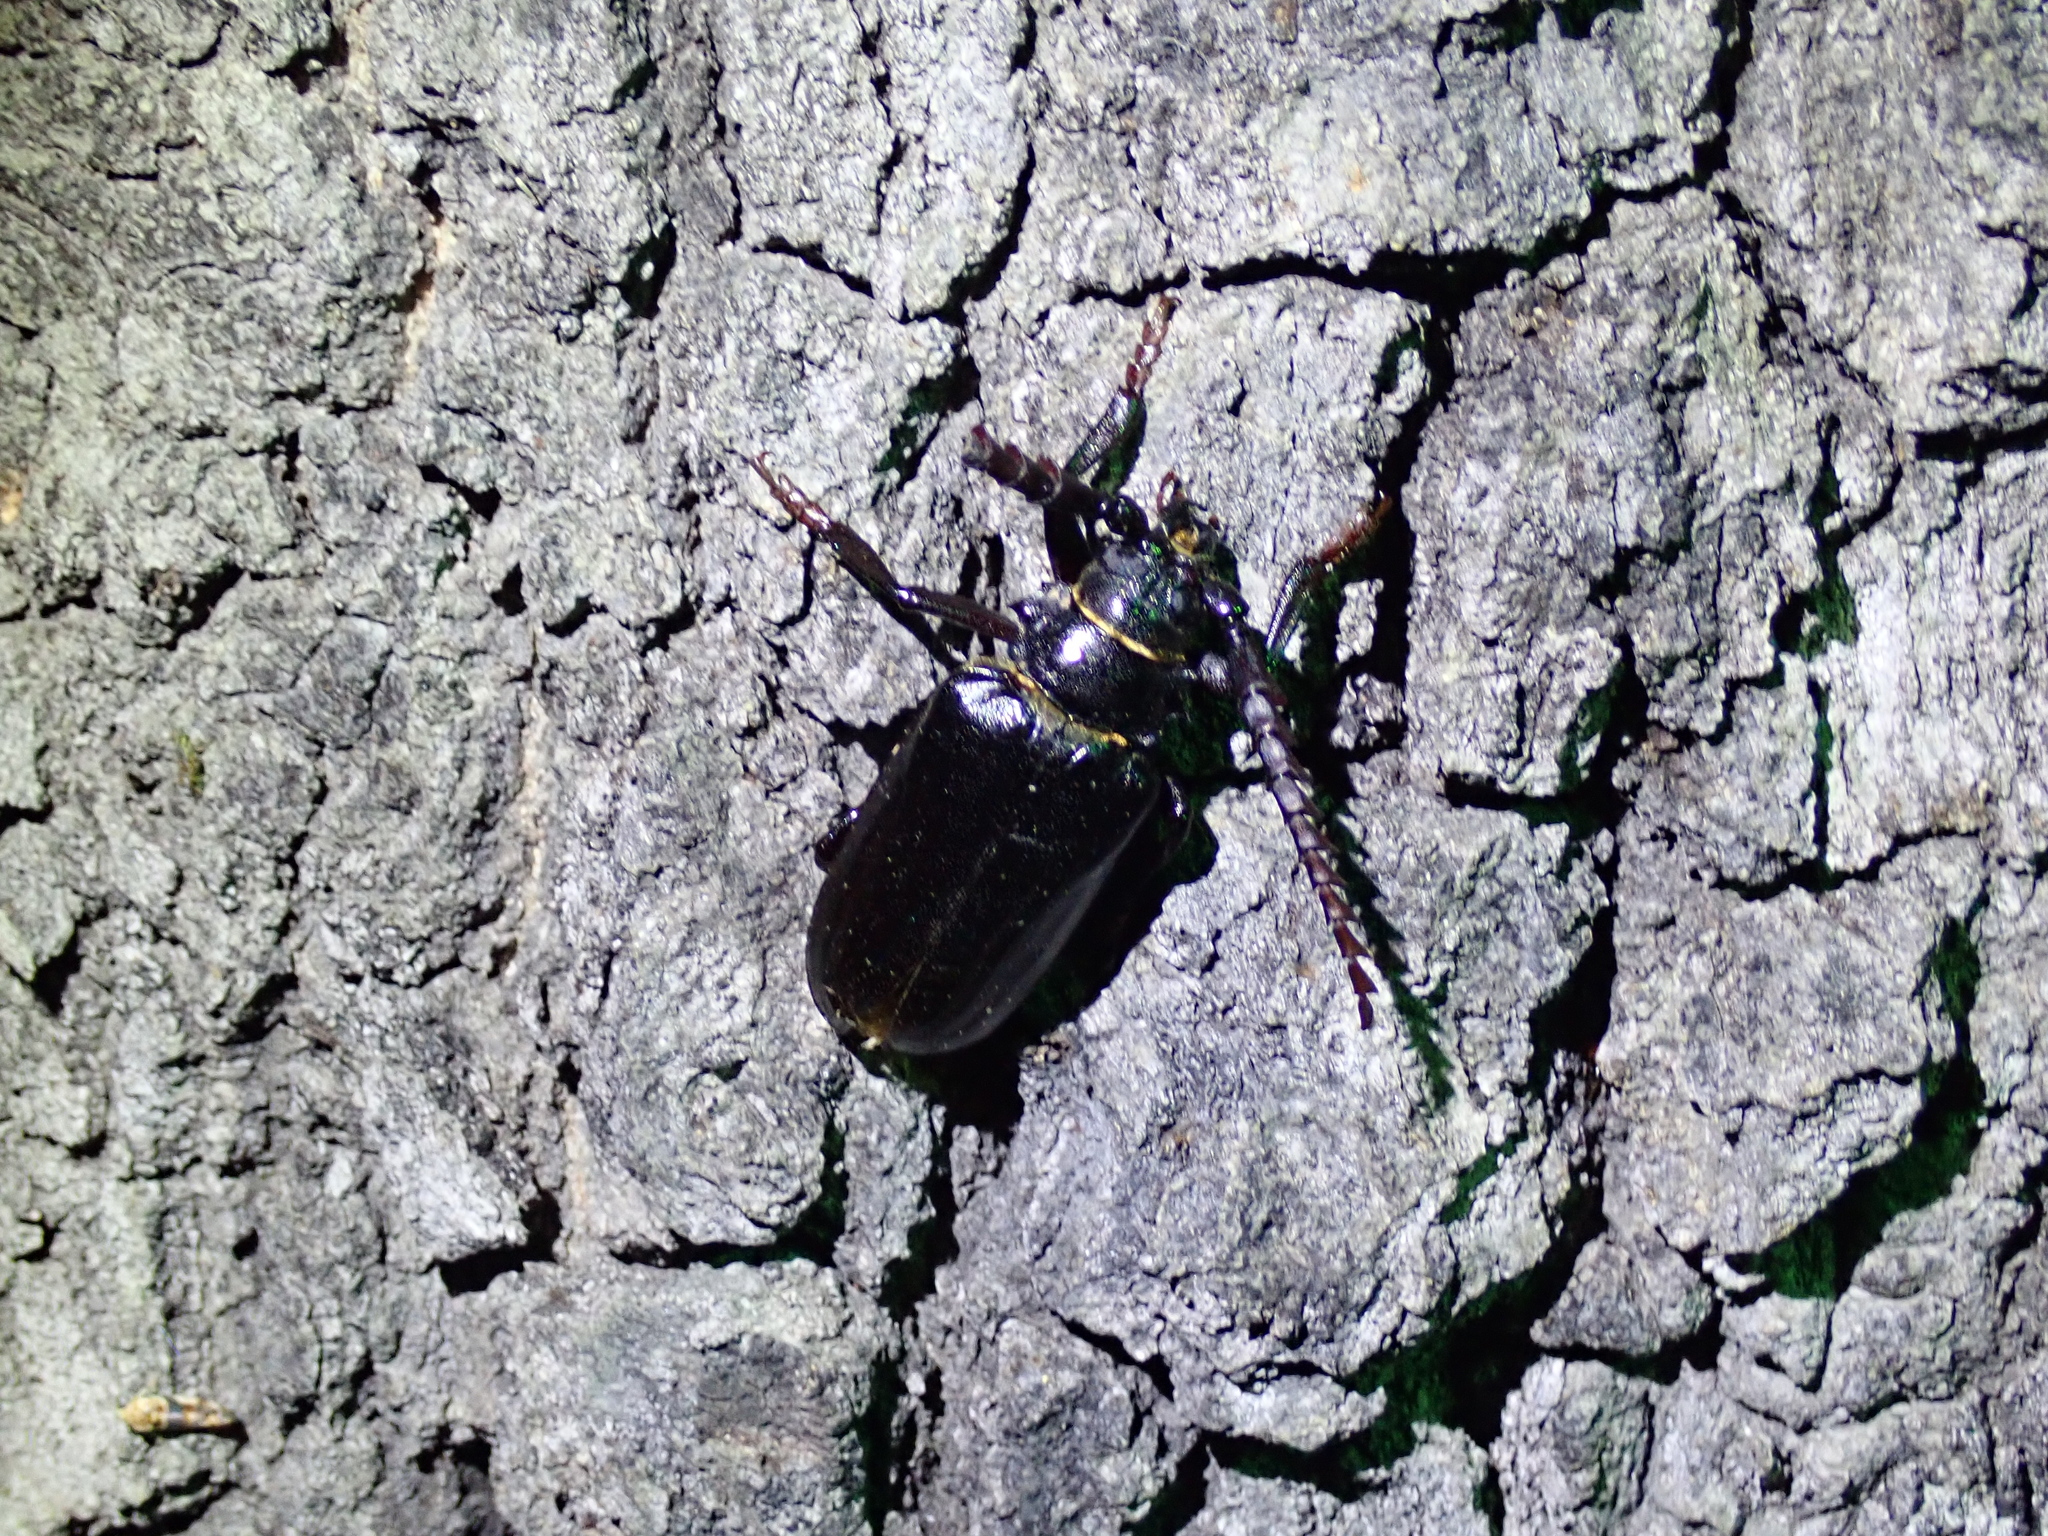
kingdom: Animalia
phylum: Arthropoda
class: Insecta
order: Coleoptera
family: Cerambycidae
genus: Prionus
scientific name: Prionus californicus
